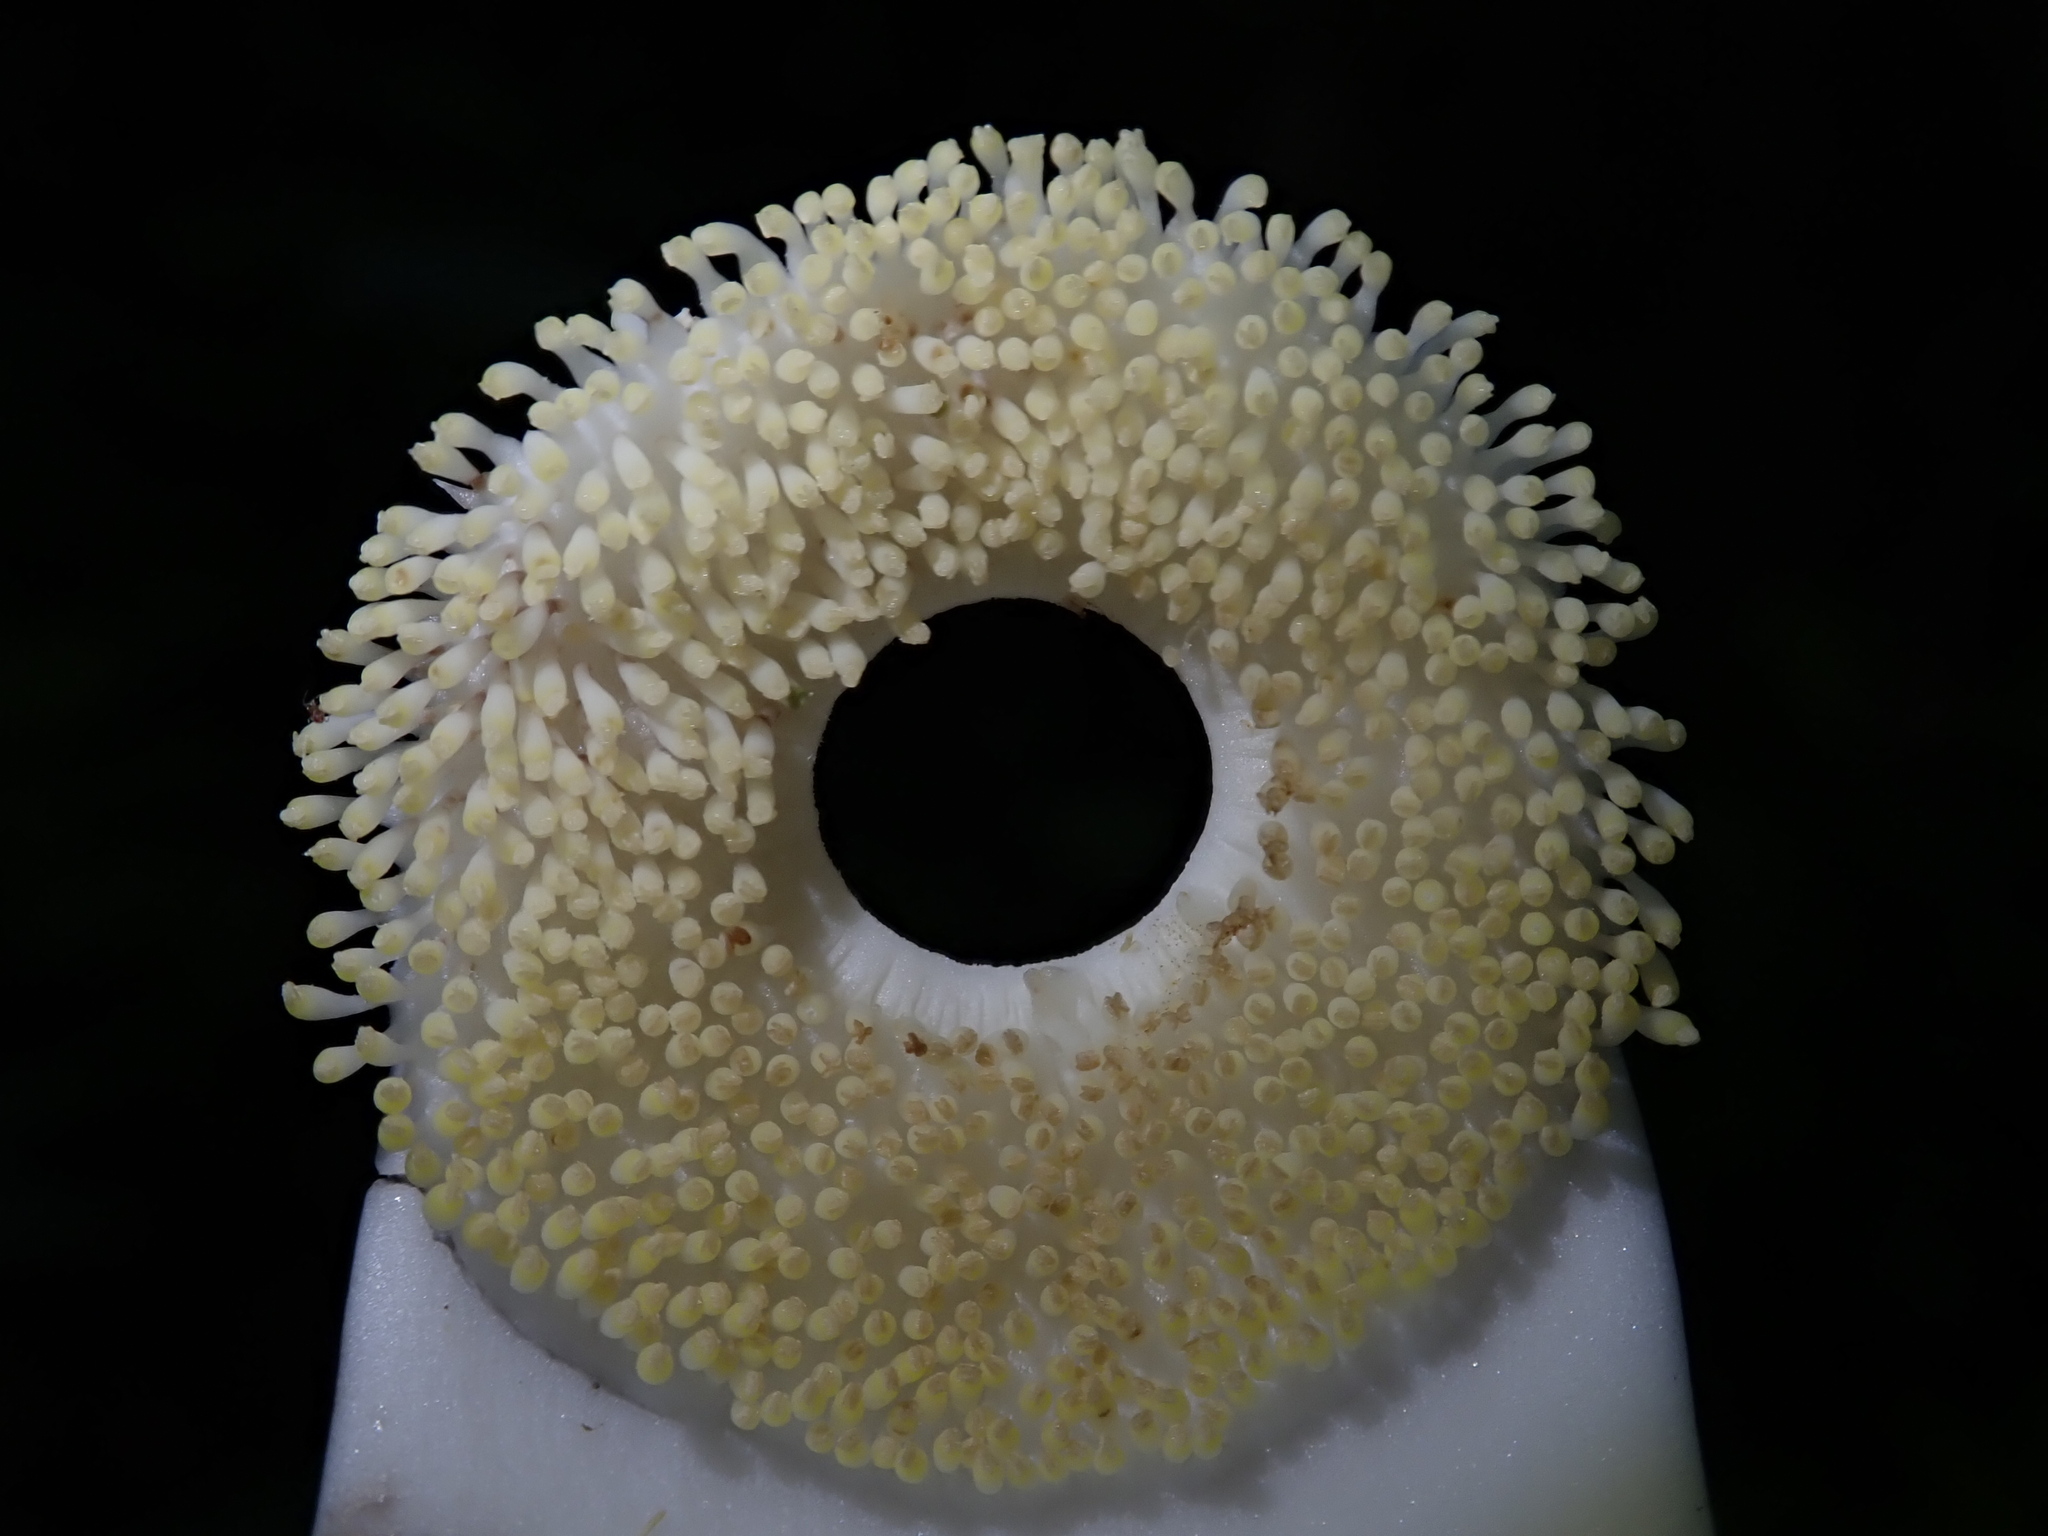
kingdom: Plantae
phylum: Tracheophyta
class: Magnoliopsida
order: Ericales
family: Lecythidaceae
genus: Couroupita
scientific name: Couroupita guianensis
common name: Cannonball tree
